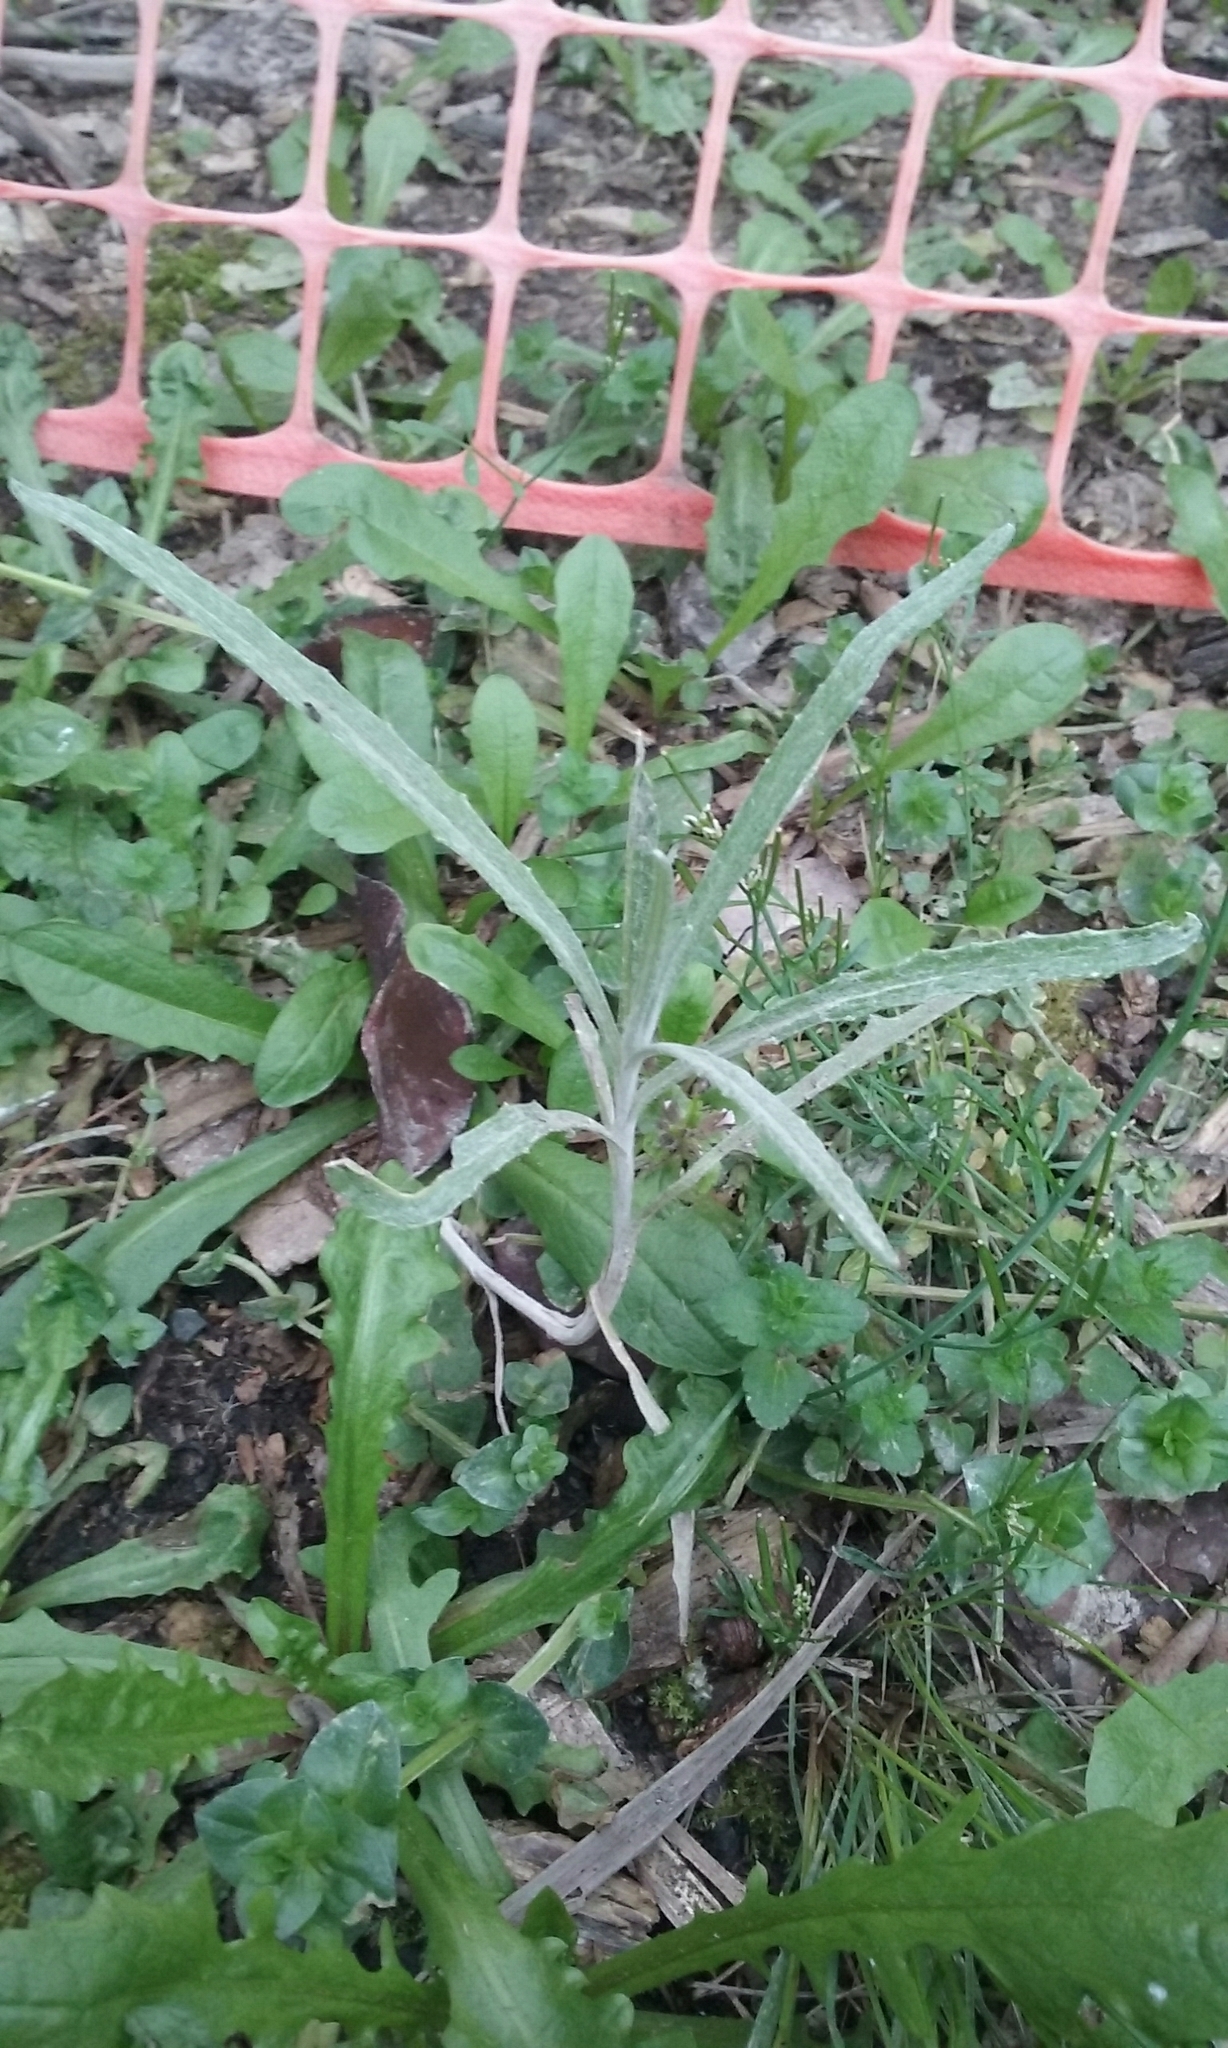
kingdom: Plantae
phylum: Tracheophyta
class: Magnoliopsida
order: Asterales
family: Asteraceae
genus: Senecio
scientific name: Senecio quadridentatus
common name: Cotton fireweed
